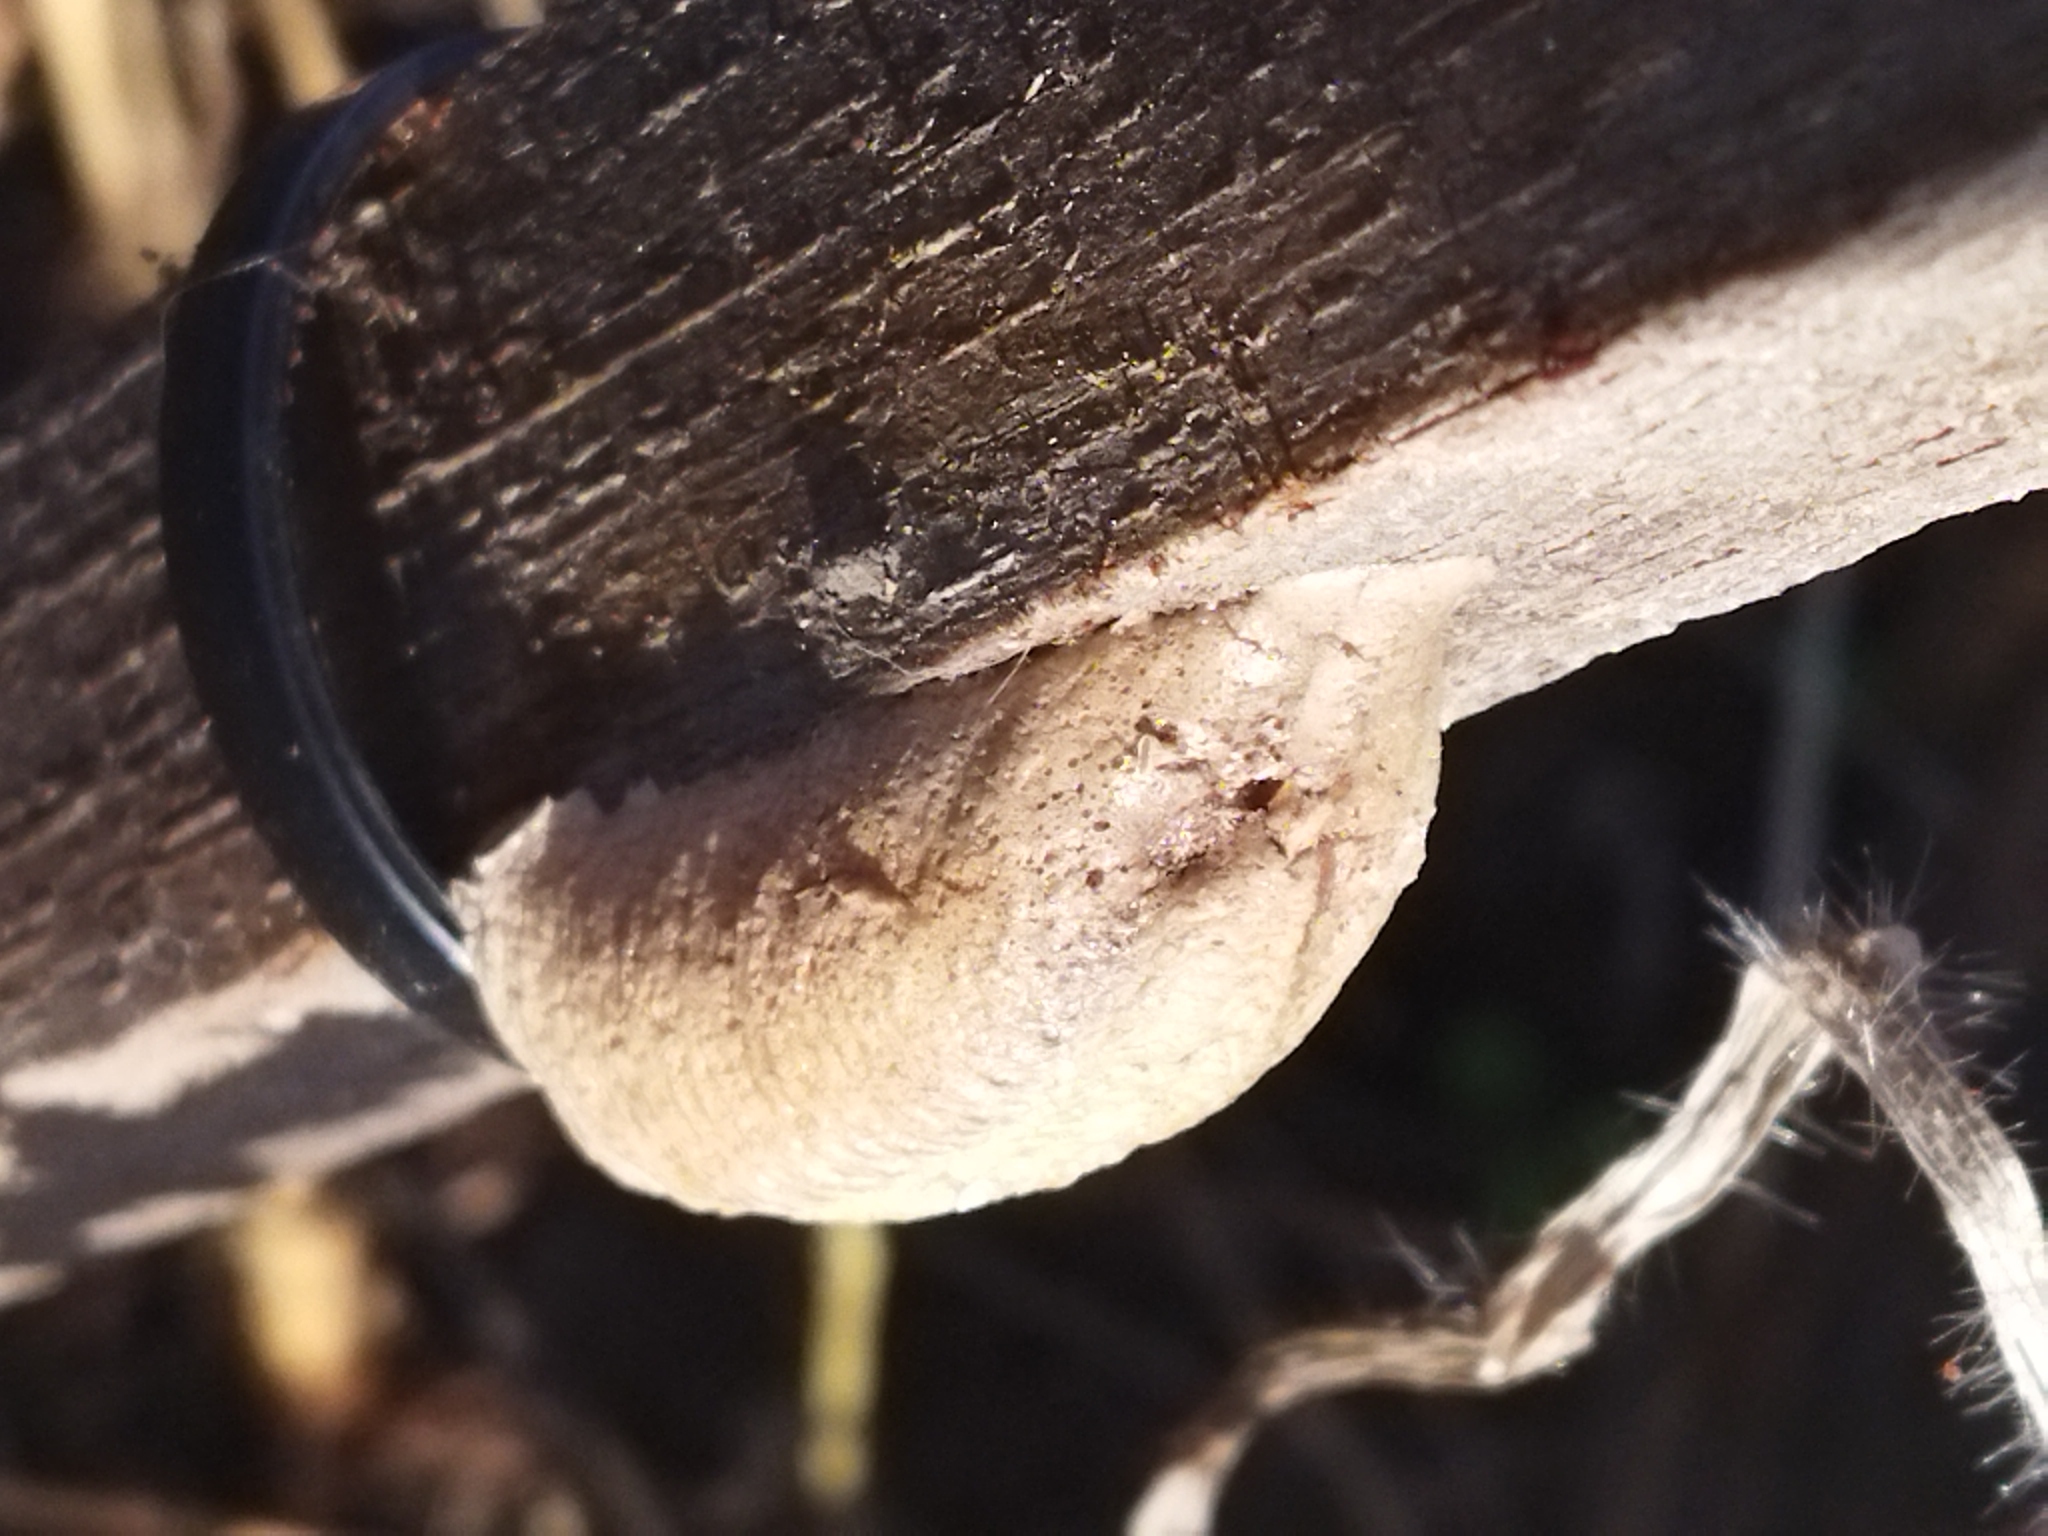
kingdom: Animalia
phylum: Arthropoda
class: Insecta
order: Mantodea
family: Mantidae
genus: Mantis
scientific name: Mantis religiosa
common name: Praying mantis
